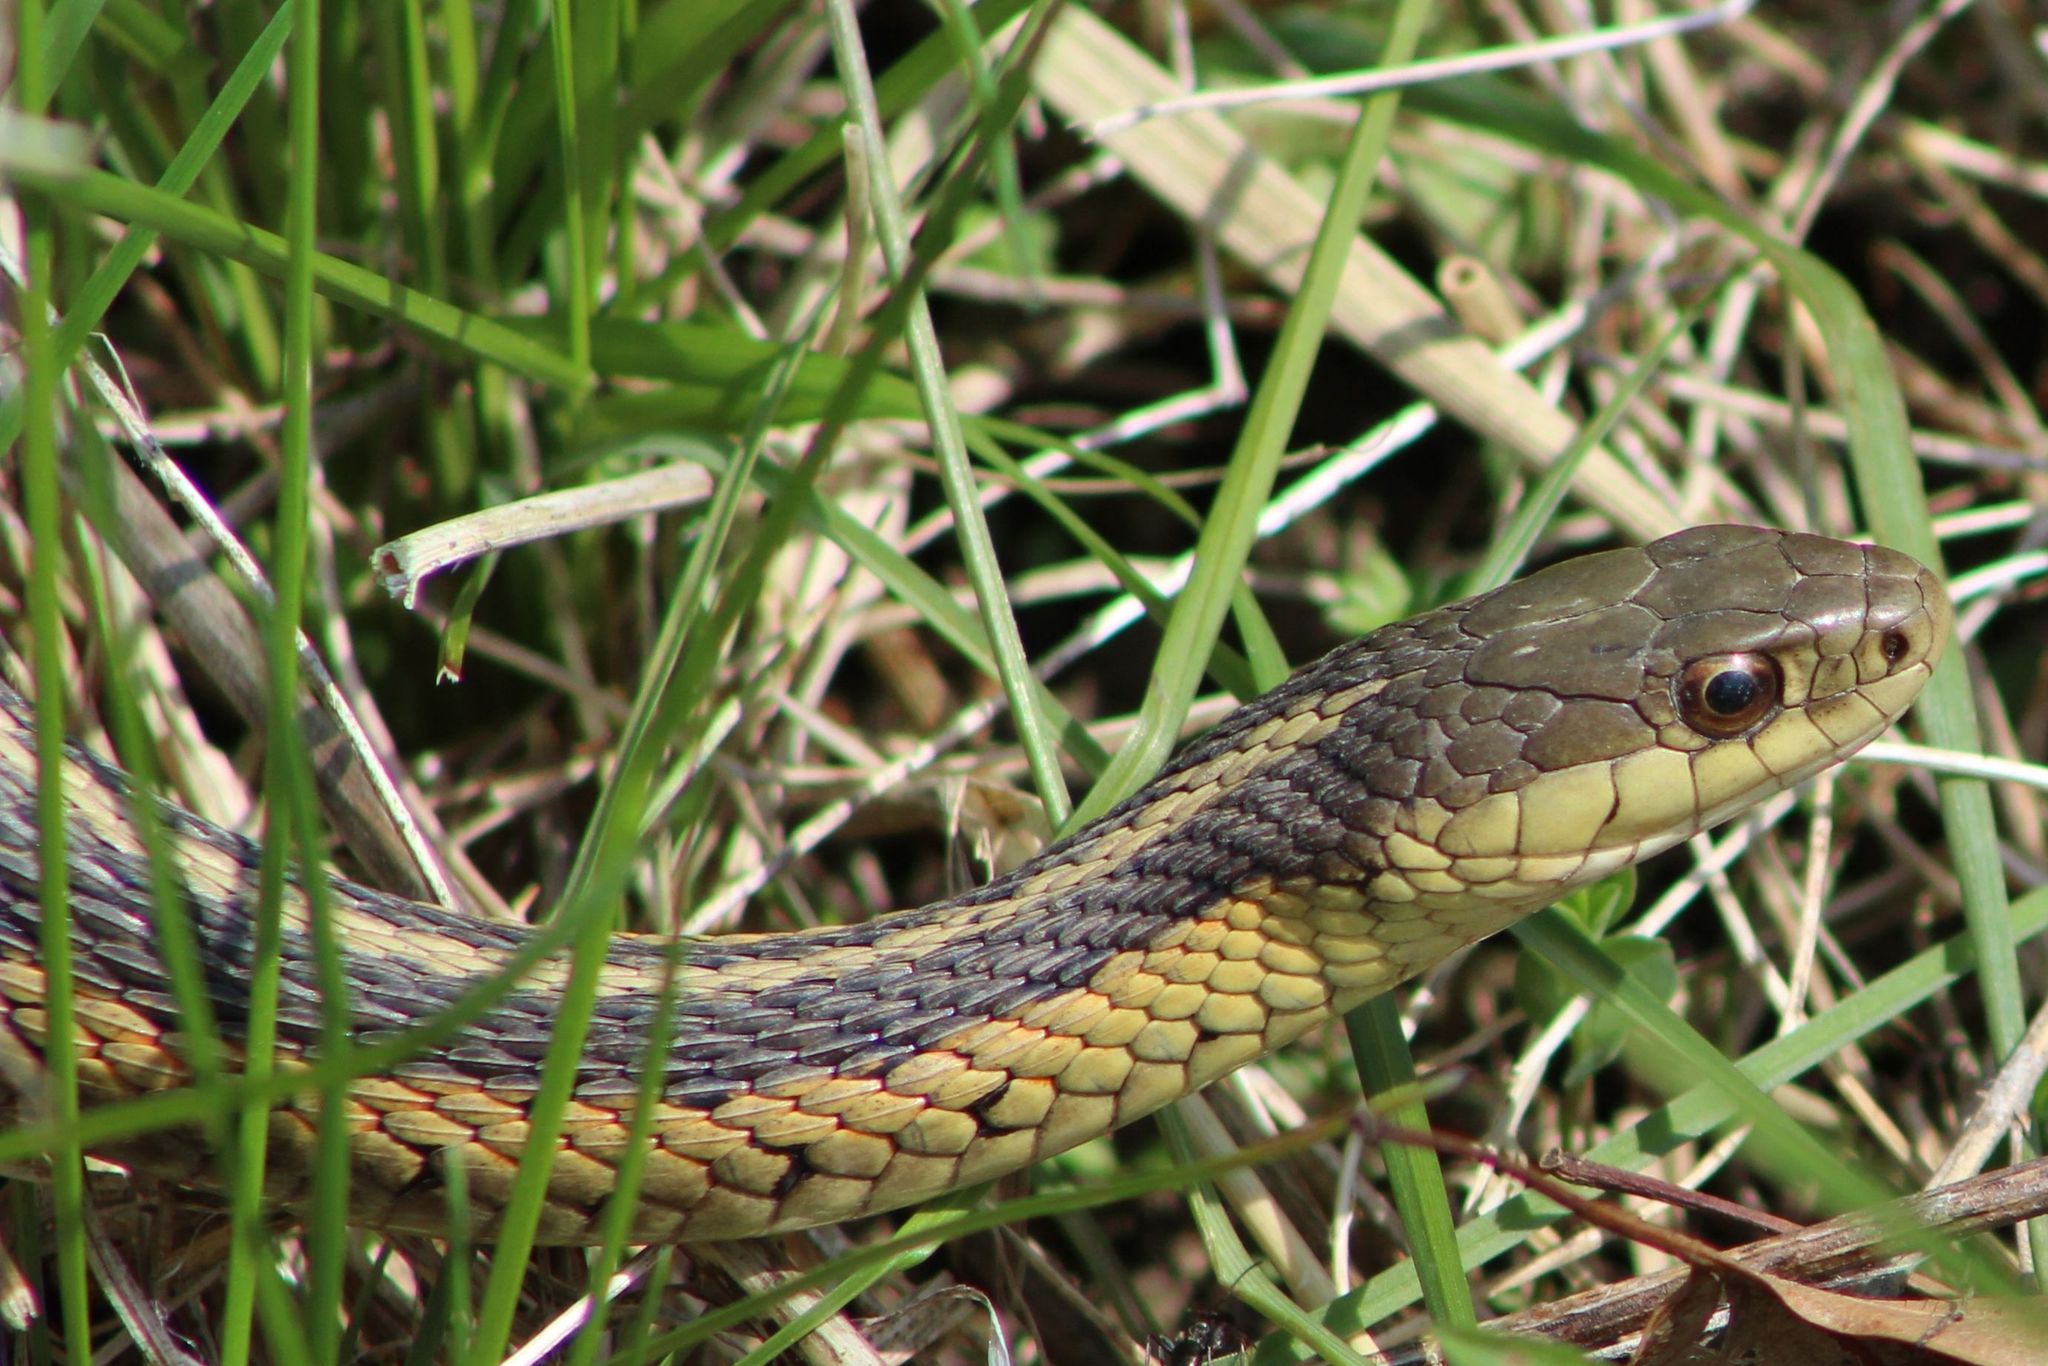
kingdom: Animalia
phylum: Chordata
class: Squamata
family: Colubridae
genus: Thamnophis
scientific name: Thamnophis sirtalis
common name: Common garter snake
